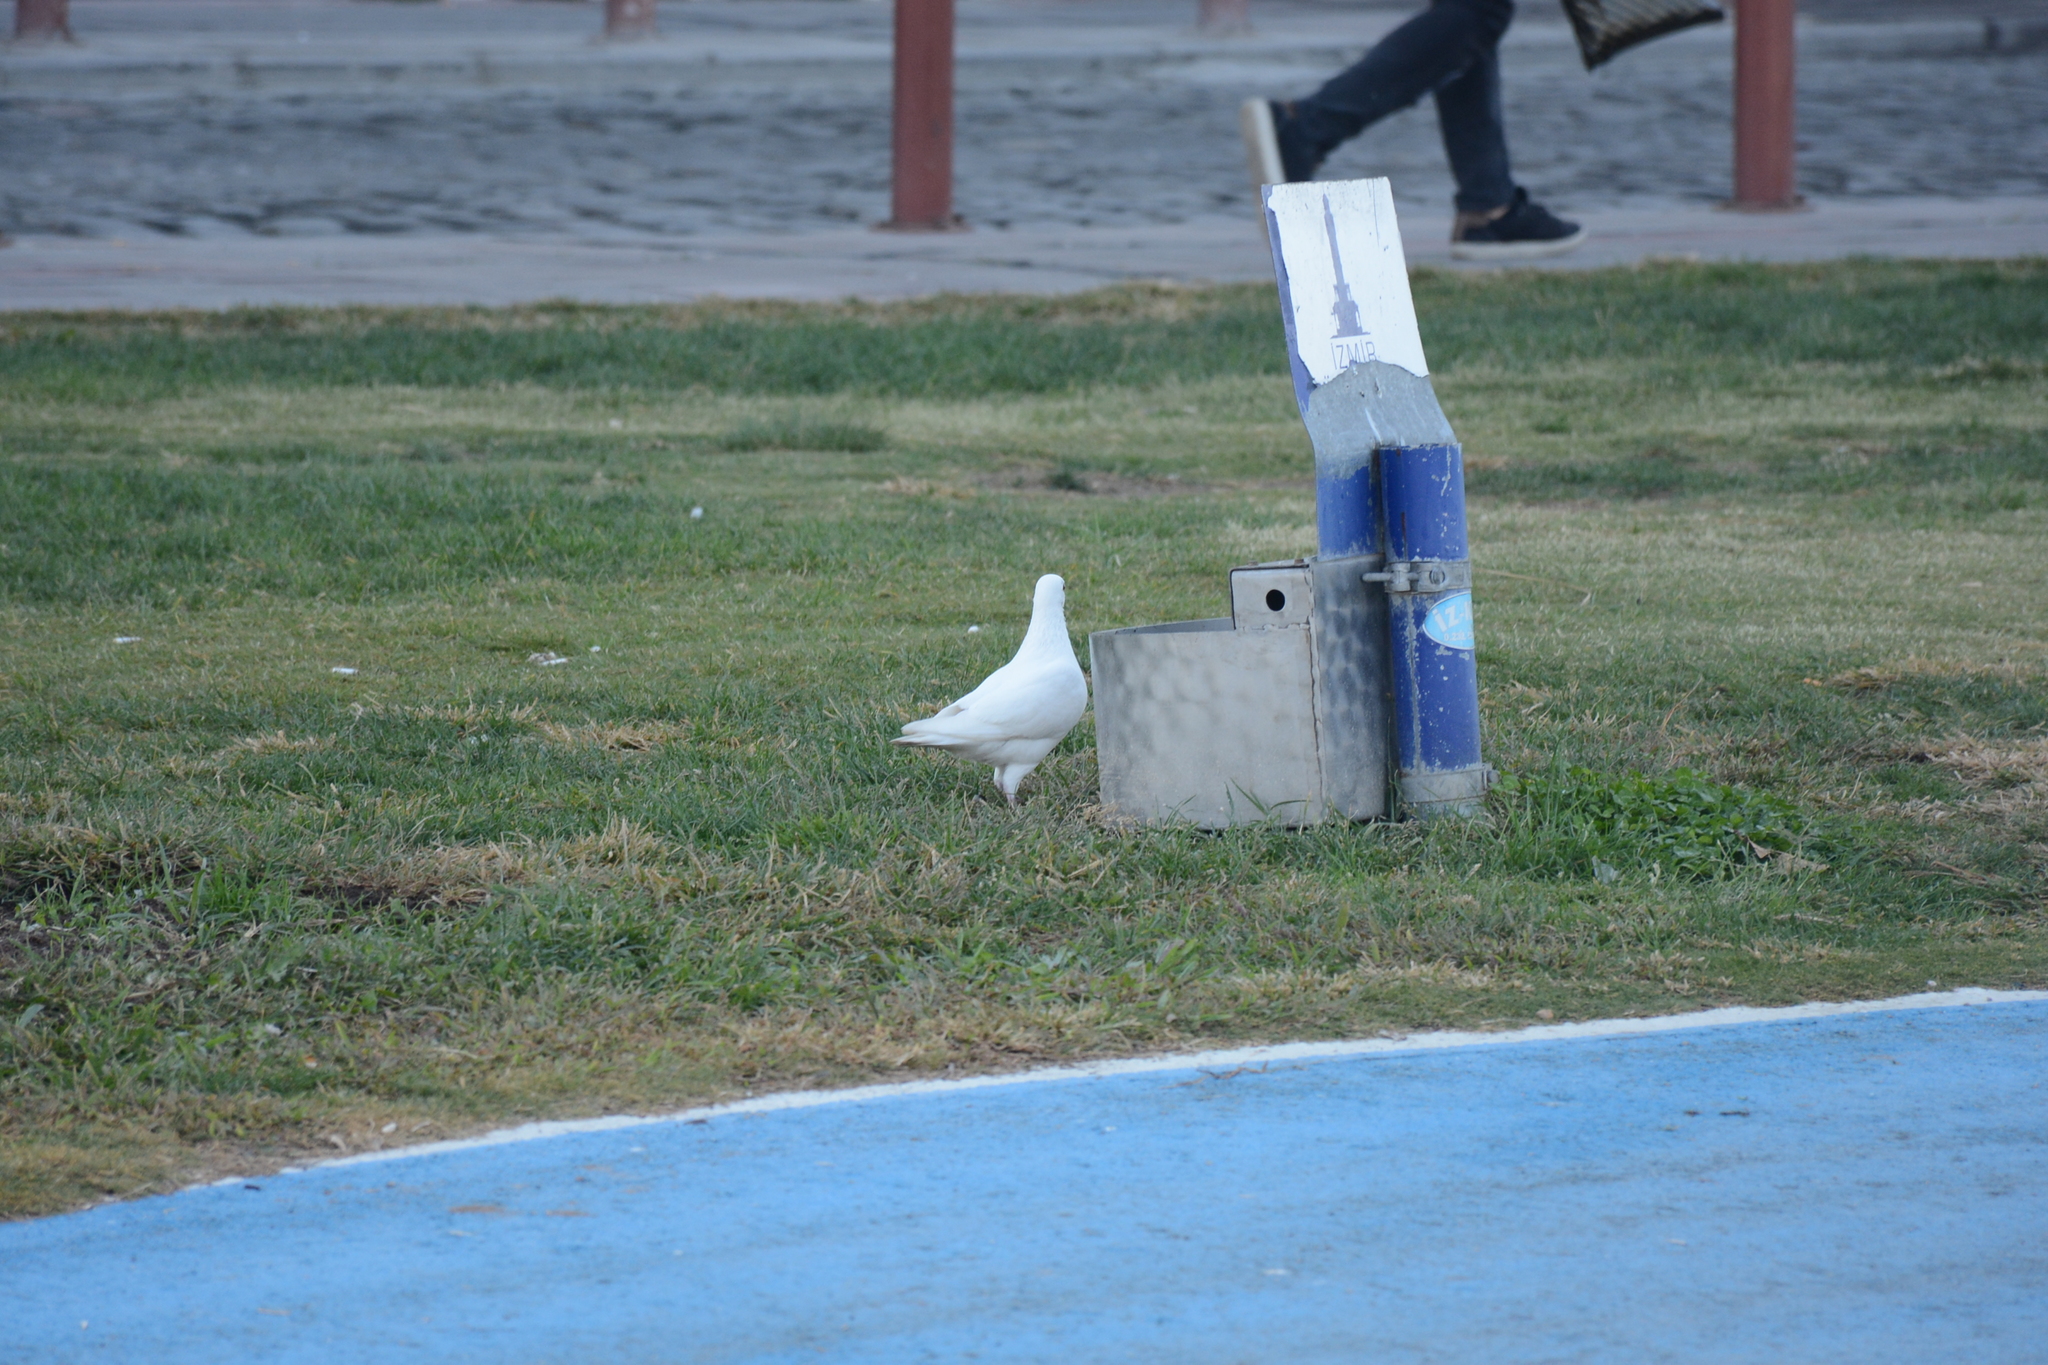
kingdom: Animalia
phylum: Chordata
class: Aves
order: Columbiformes
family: Columbidae
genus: Columba
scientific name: Columba livia
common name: Rock pigeon
